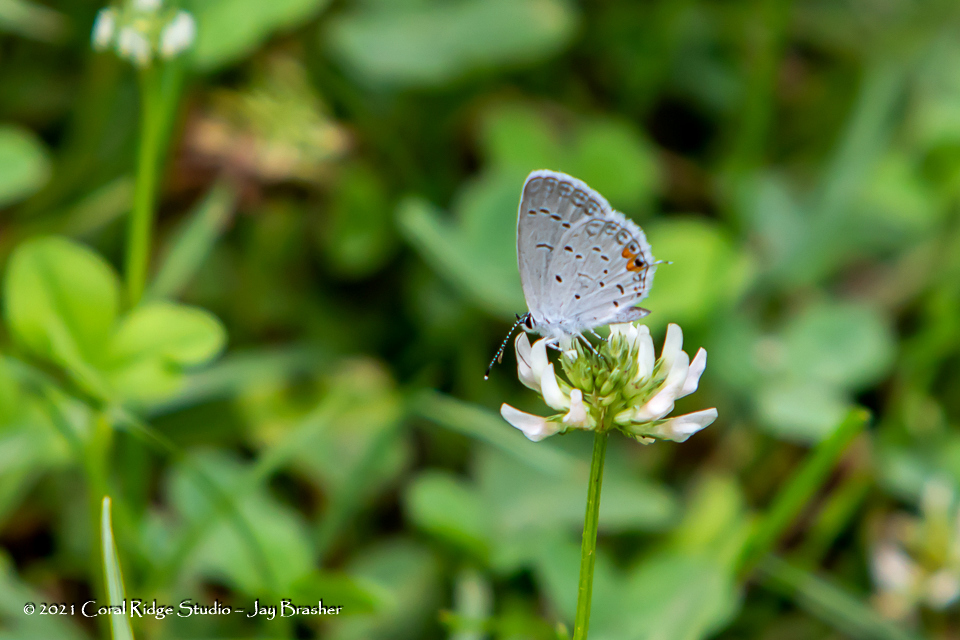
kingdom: Animalia
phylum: Arthropoda
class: Insecta
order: Lepidoptera
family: Lycaenidae
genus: Elkalyce
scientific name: Elkalyce comyntas
